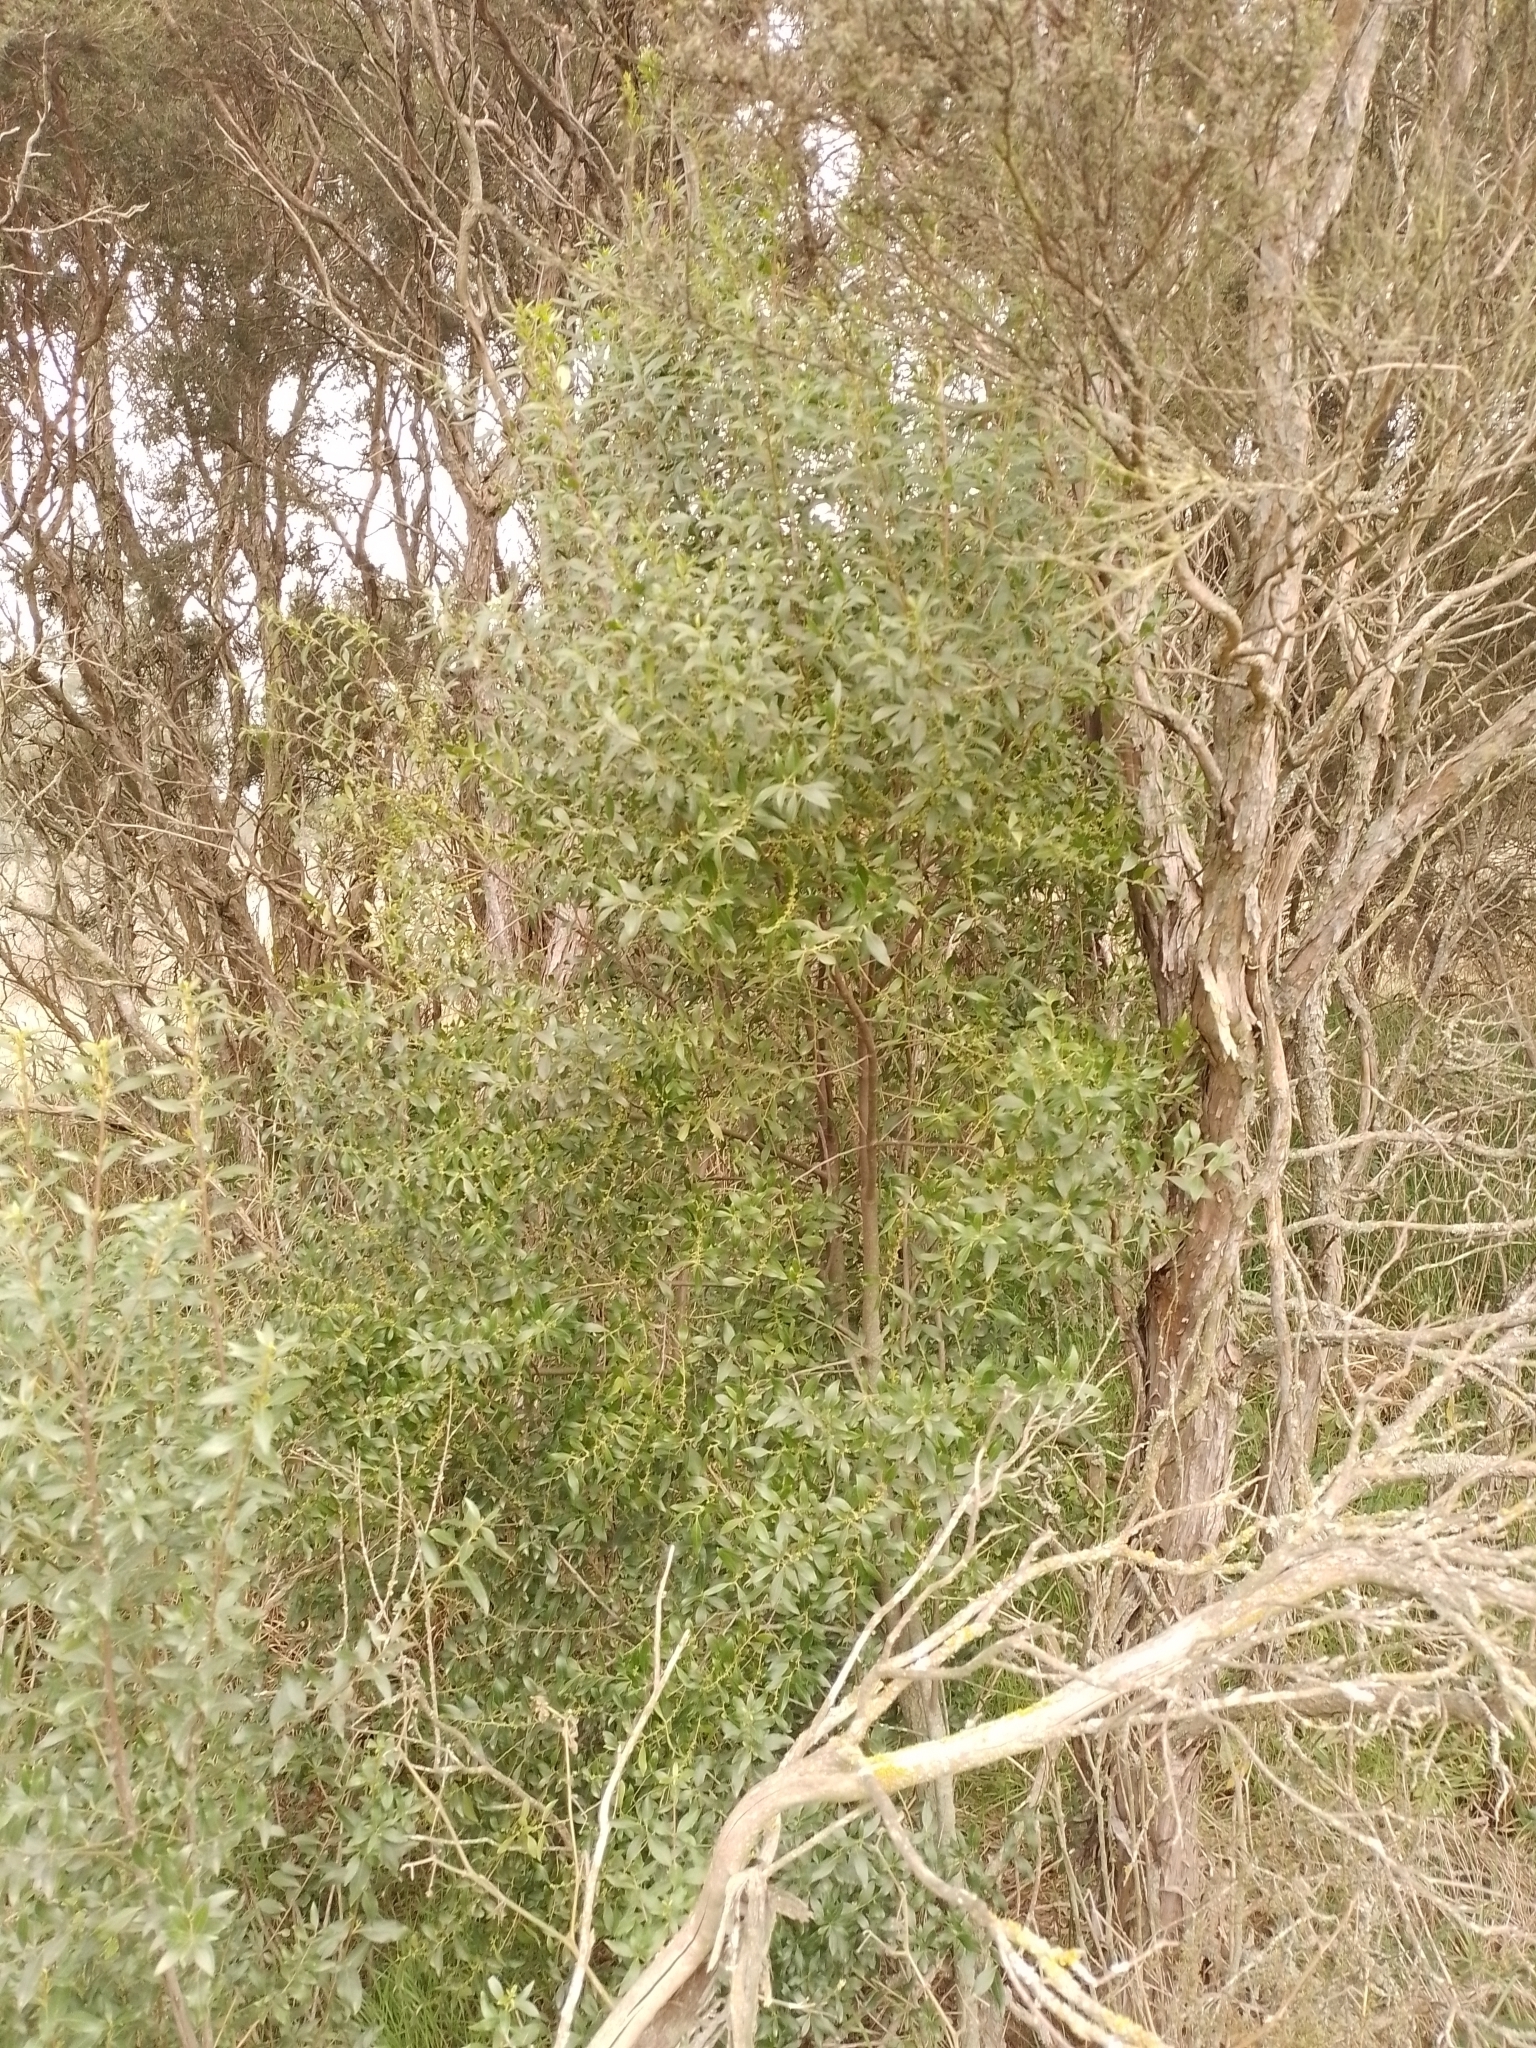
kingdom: Plantae
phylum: Tracheophyta
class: Magnoliopsida
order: Celastrales
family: Celastraceae
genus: Maytenus
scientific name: Maytenus boaria
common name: Mayten
